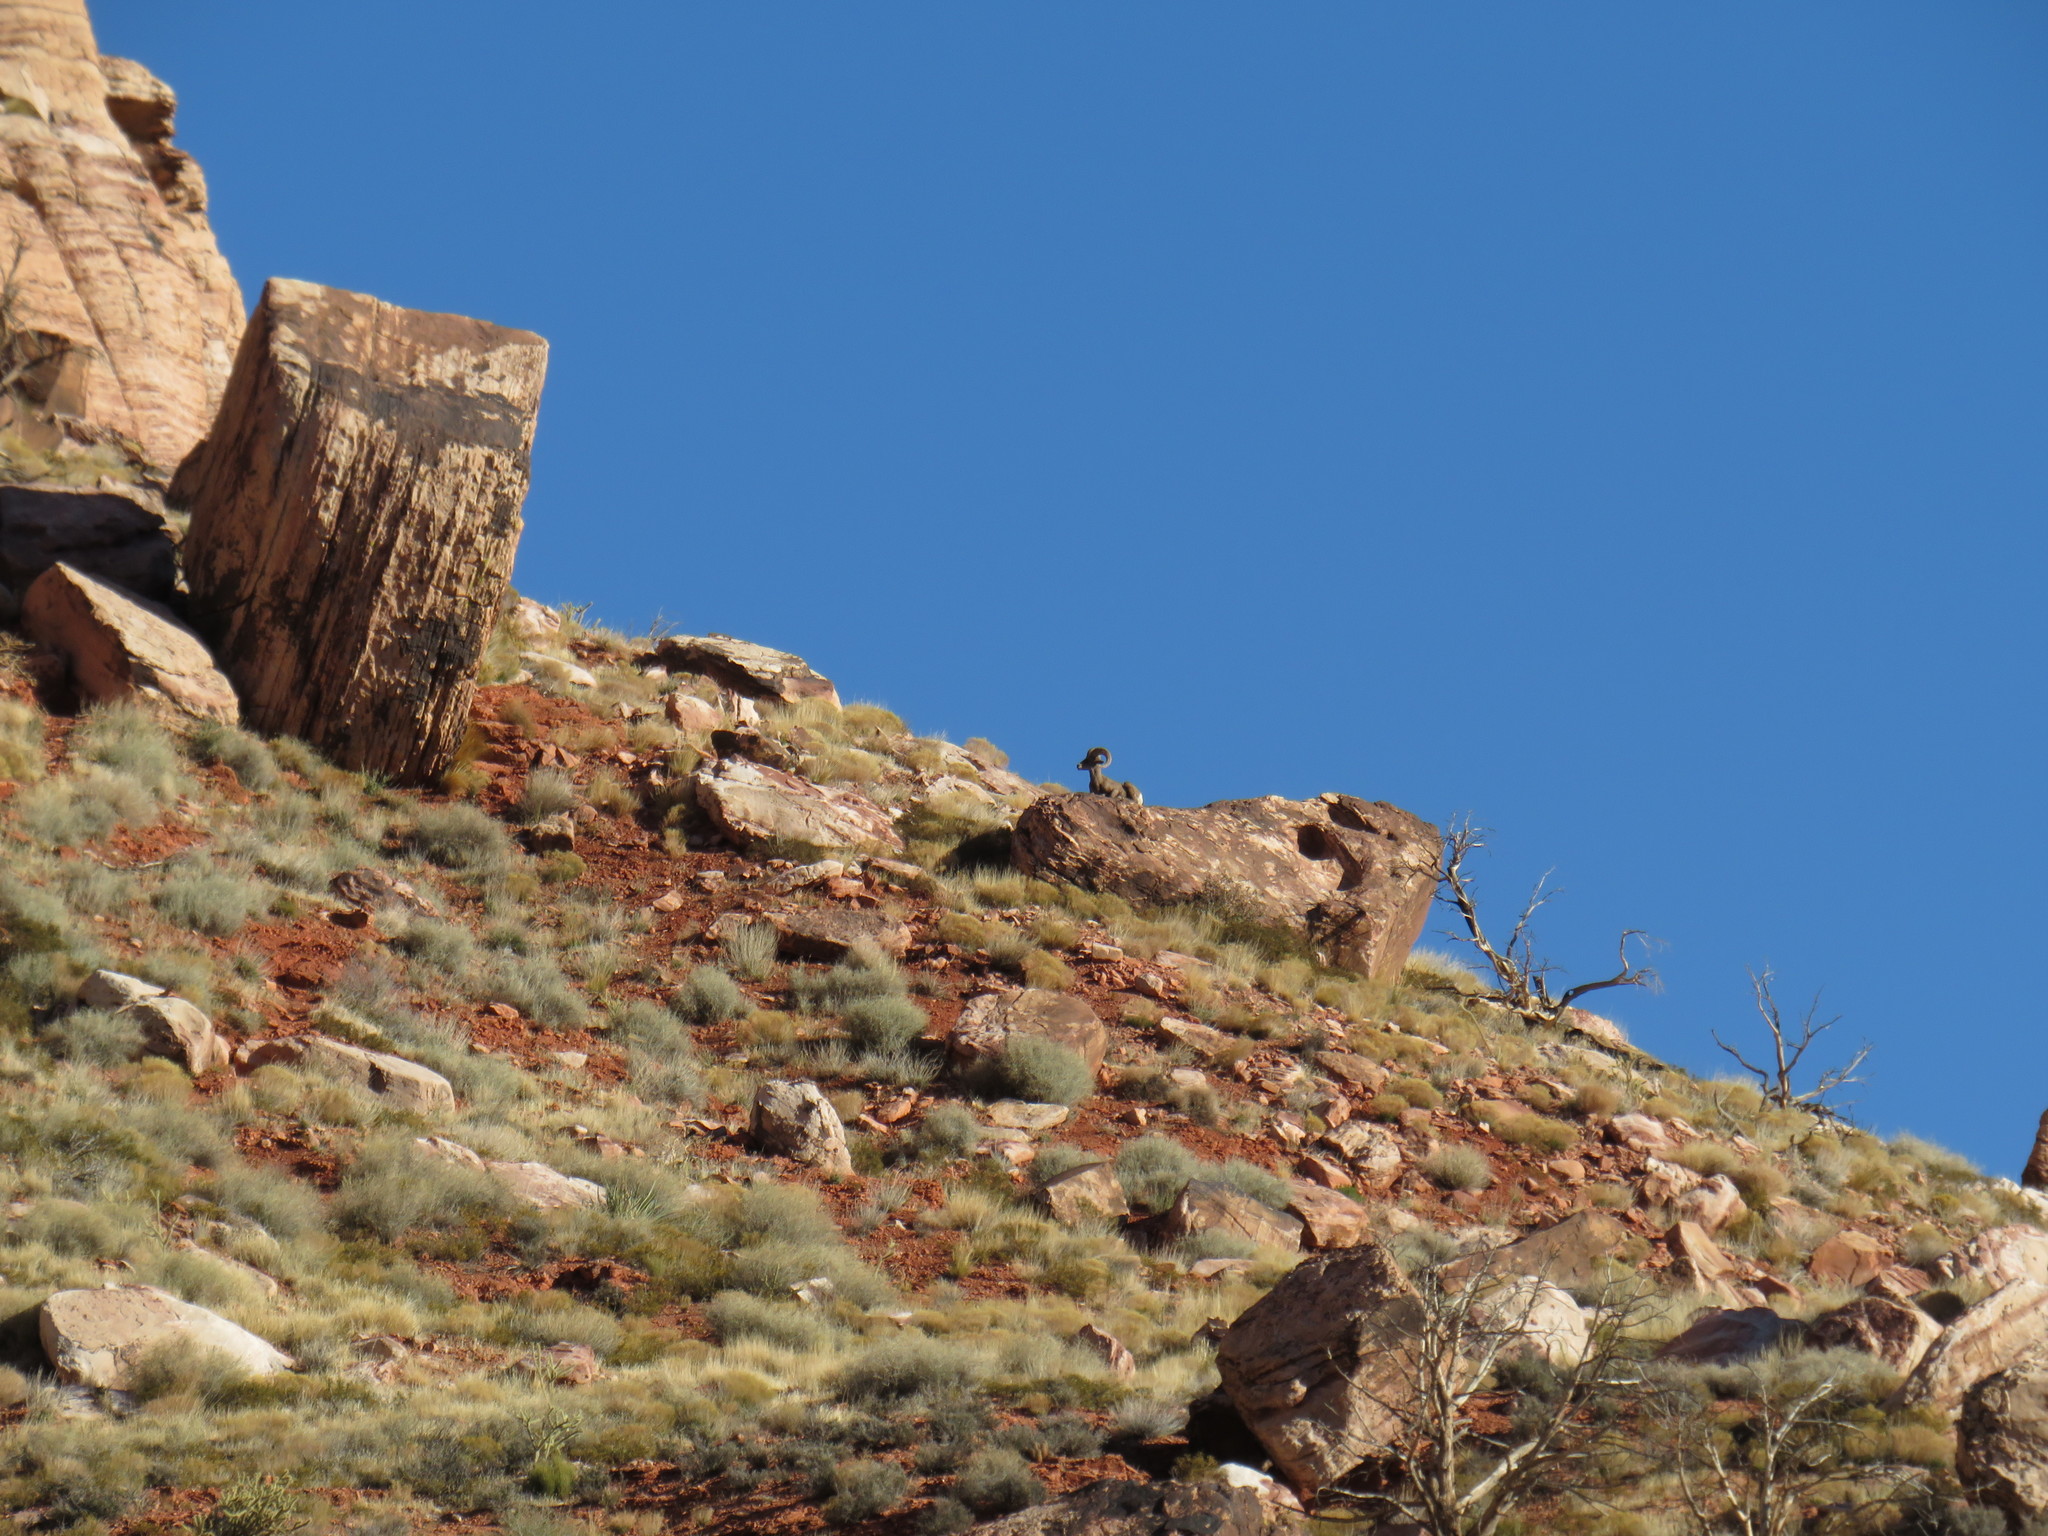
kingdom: Animalia
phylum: Chordata
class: Mammalia
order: Artiodactyla
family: Bovidae
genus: Ovis
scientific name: Ovis canadensis
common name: Bighorn sheep
